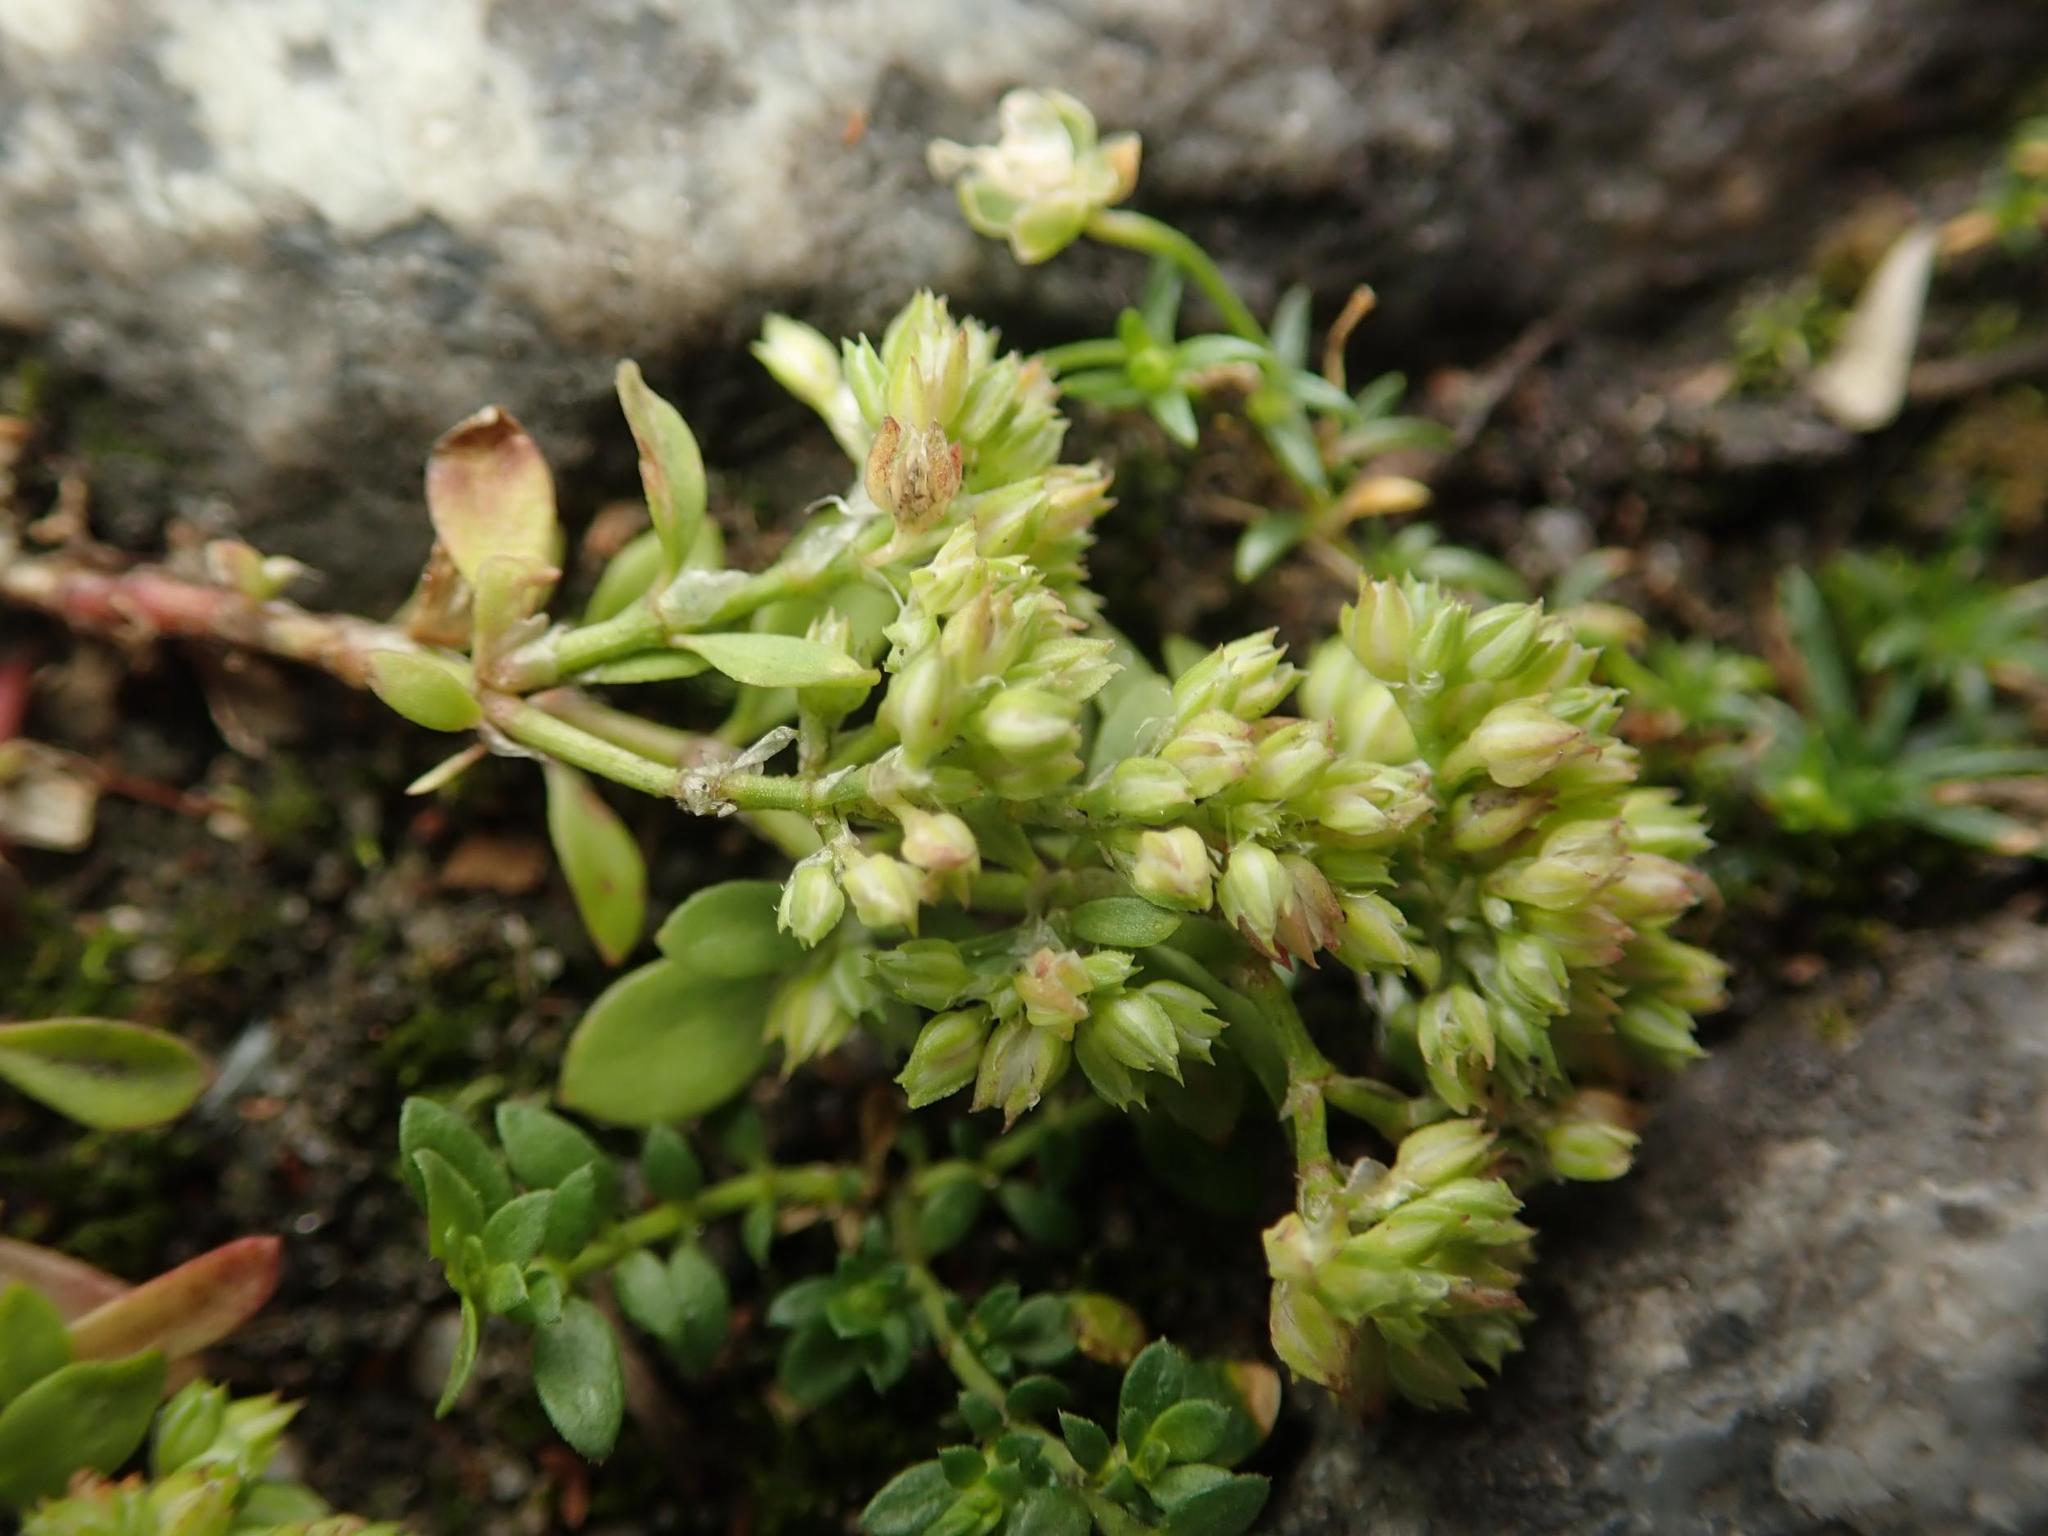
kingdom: Plantae
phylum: Tracheophyta
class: Magnoliopsida
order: Caryophyllales
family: Caryophyllaceae
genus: Polycarpon
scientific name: Polycarpon tetraphyllum
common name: Four-leaved all-seed
